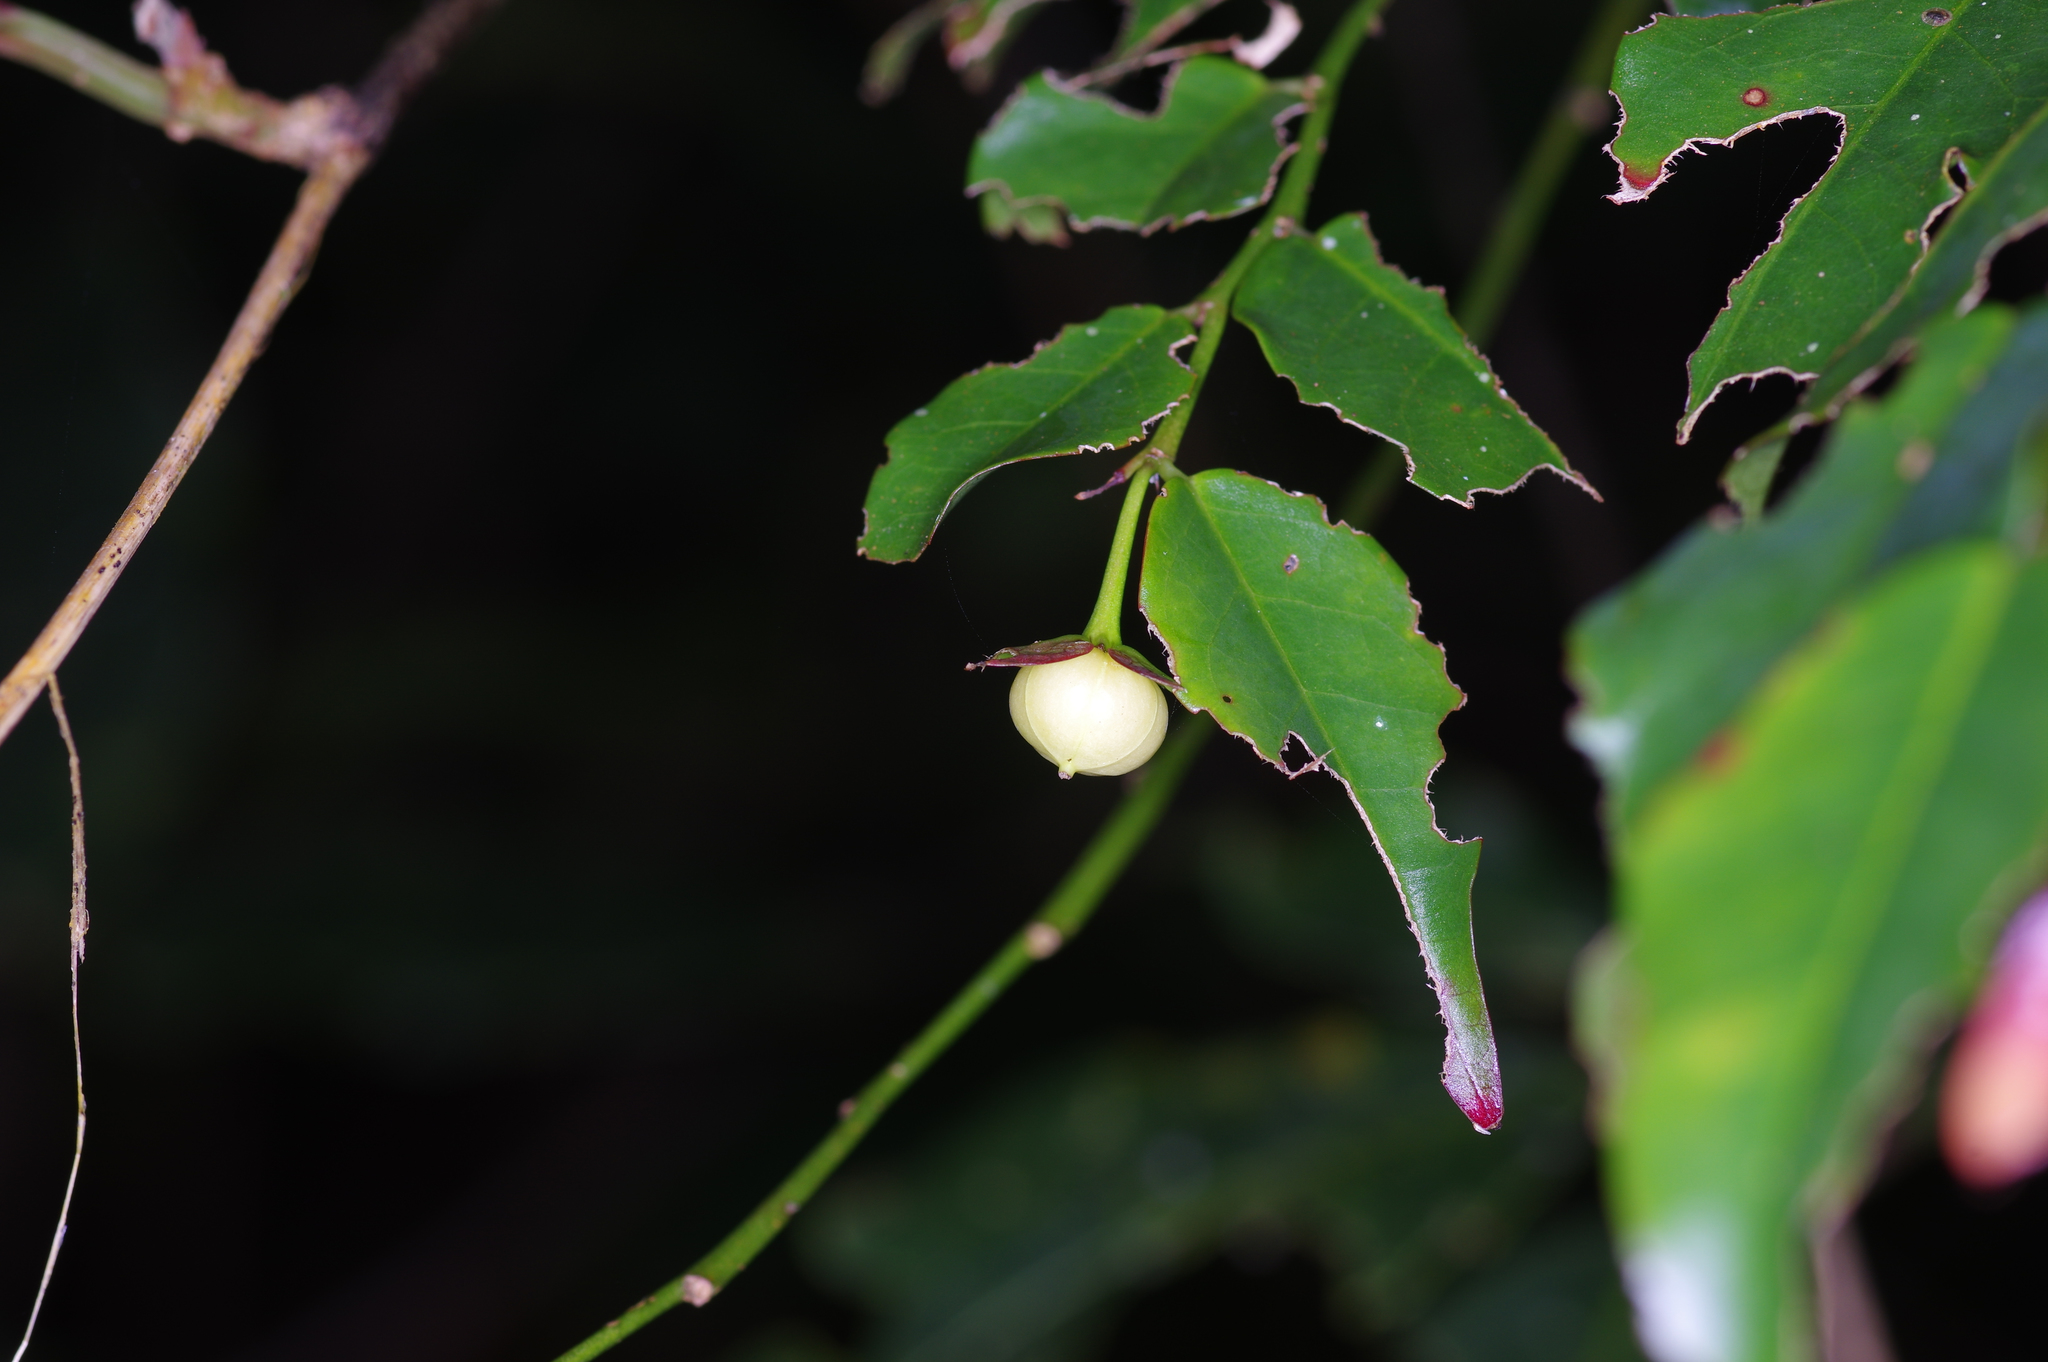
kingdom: Plantae
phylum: Tracheophyta
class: Magnoliopsida
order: Malpighiales
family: Phyllanthaceae
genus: Phyllanthus
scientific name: Phyllanthus koghiensis
